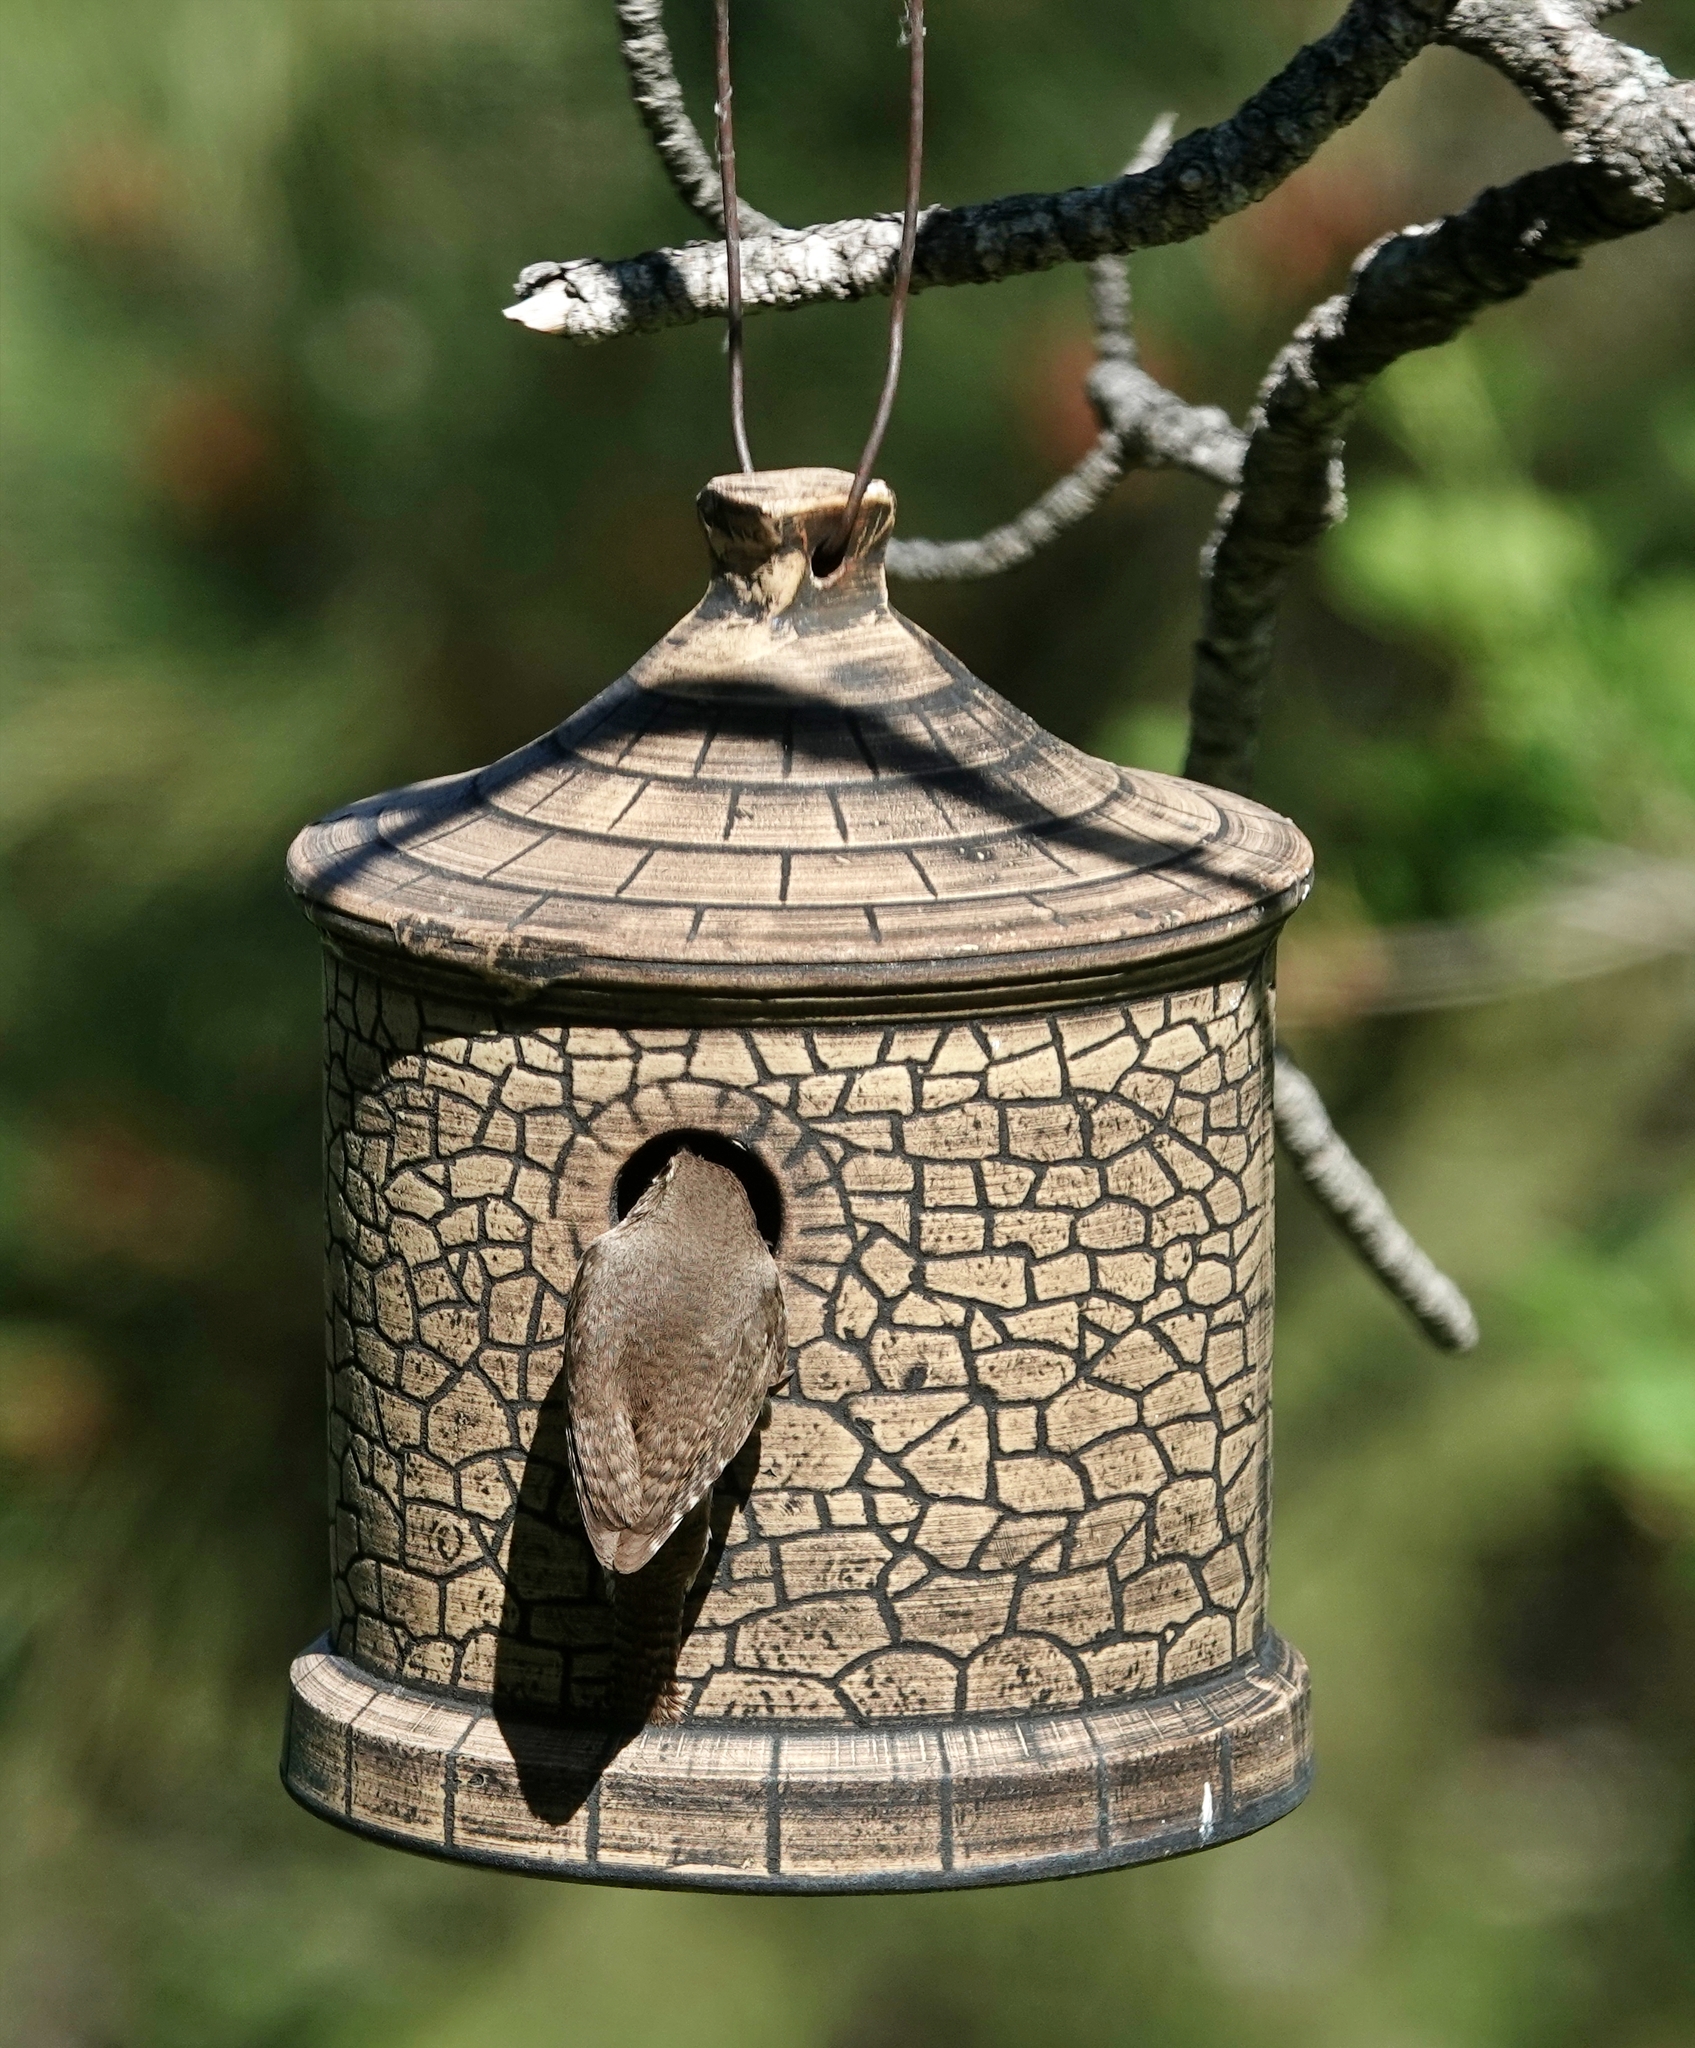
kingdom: Animalia
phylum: Chordata
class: Aves
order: Passeriformes
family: Troglodytidae
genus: Troglodytes
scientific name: Troglodytes aedon
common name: House wren
